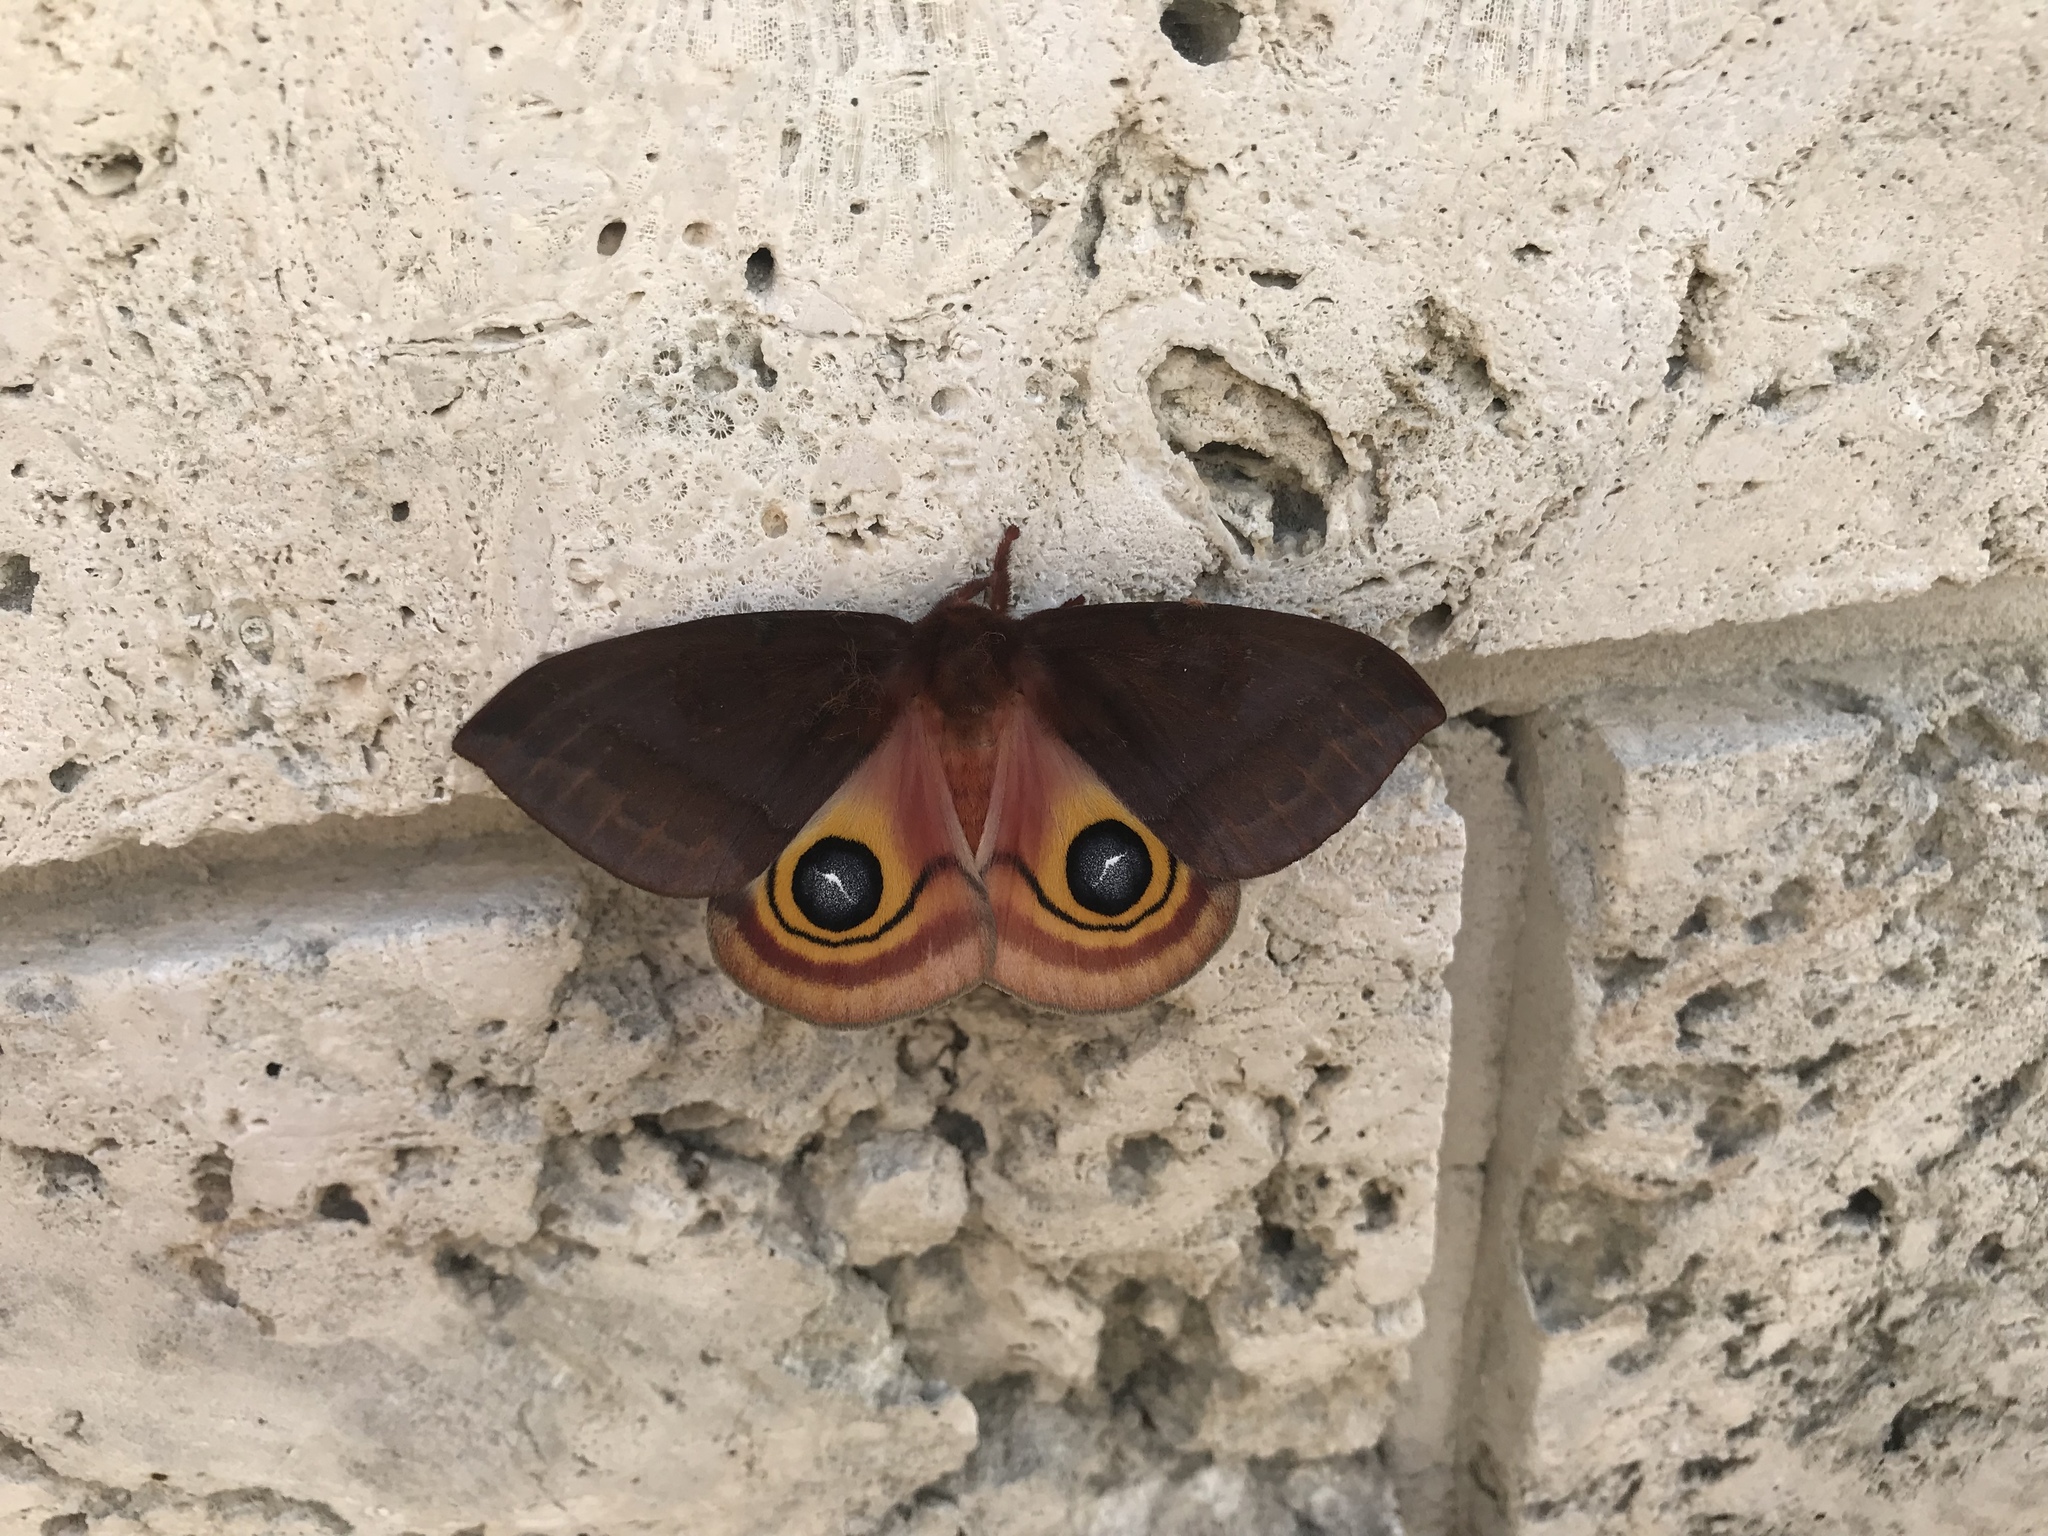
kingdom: Animalia
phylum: Arthropoda
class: Insecta
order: Lepidoptera
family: Saturniidae
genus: Automeris
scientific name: Automeris io
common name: Io moth
